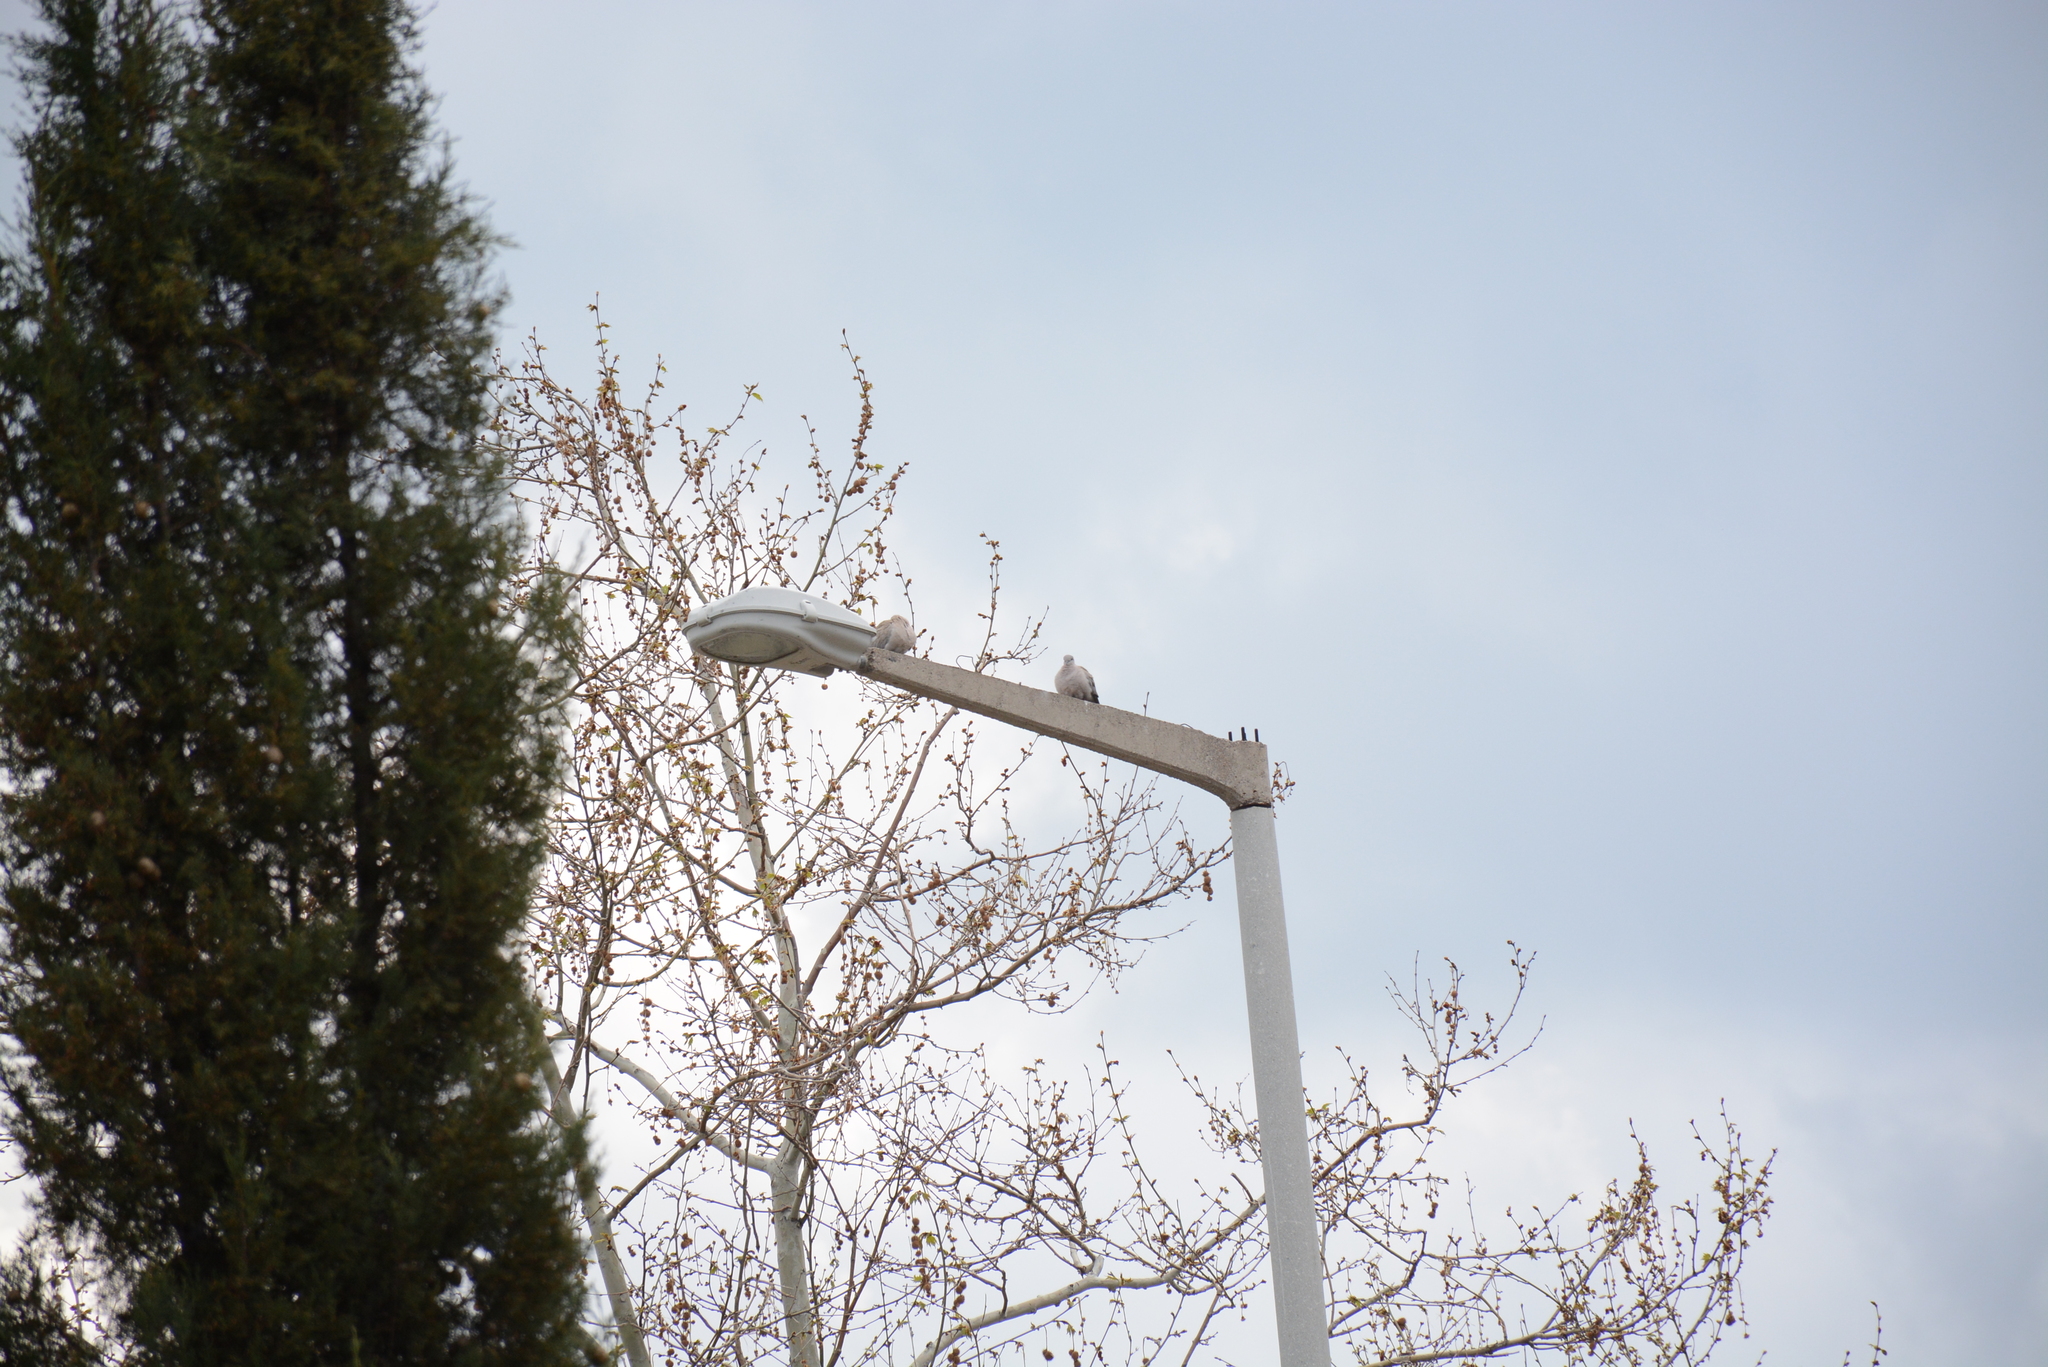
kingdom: Animalia
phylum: Chordata
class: Aves
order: Columbiformes
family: Columbidae
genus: Streptopelia
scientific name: Streptopelia decaocto
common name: Eurasian collared dove
